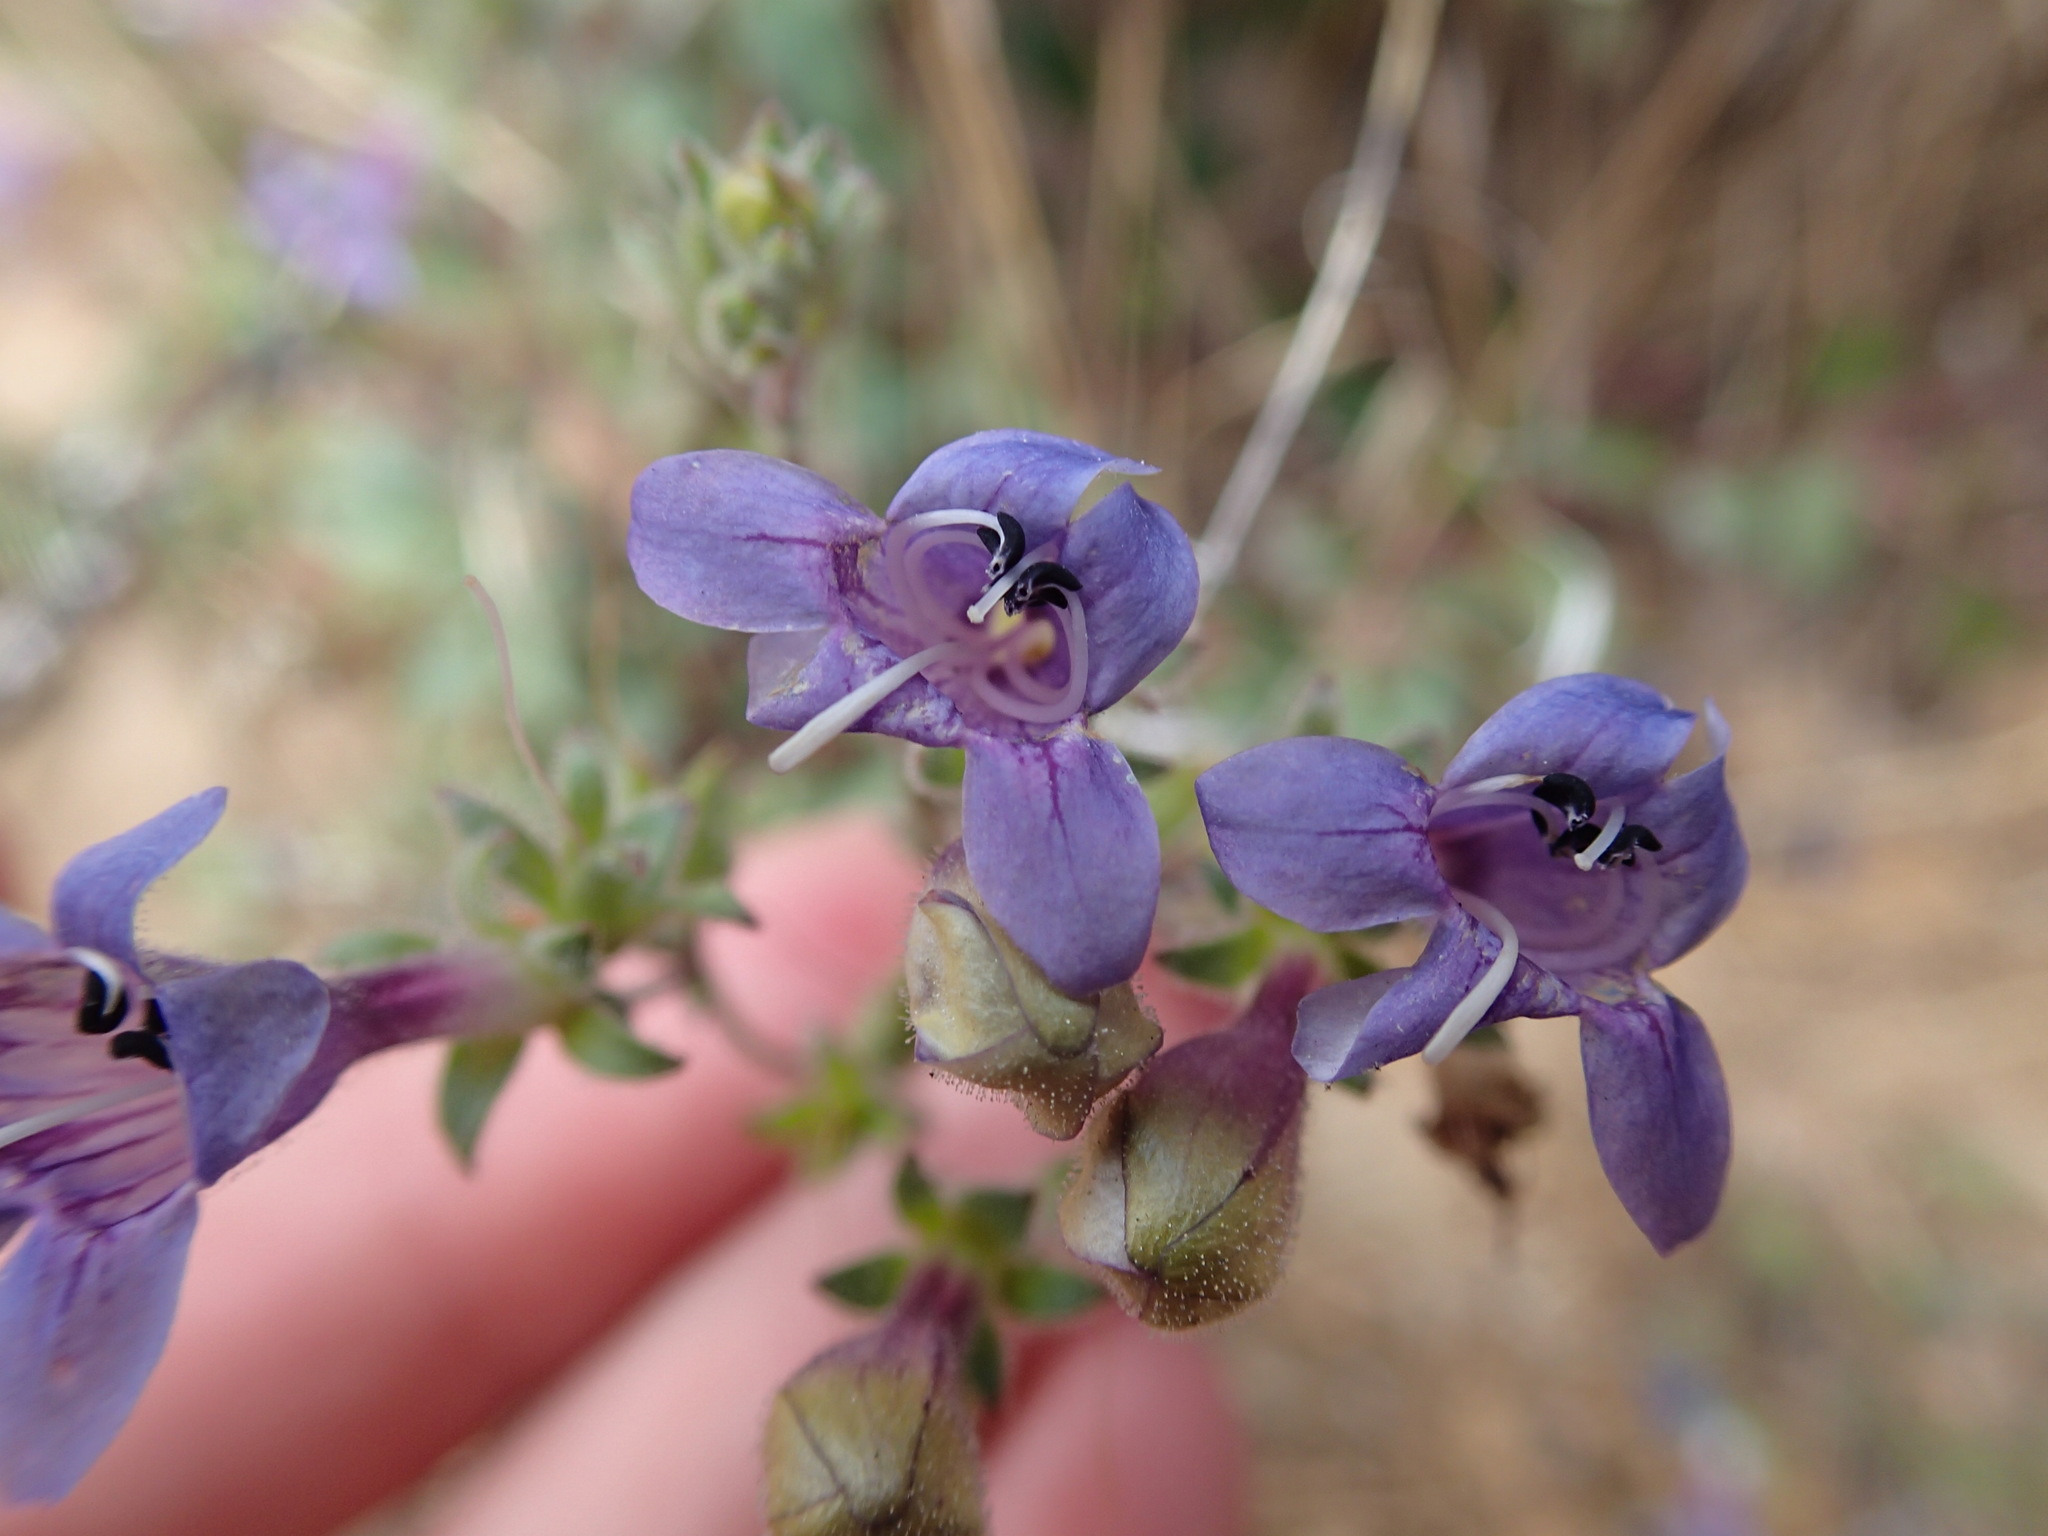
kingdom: Plantae
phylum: Tracheophyta
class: Magnoliopsida
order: Lamiales
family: Plantaginaceae
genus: Penstemon
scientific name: Penstemon diphyllus
